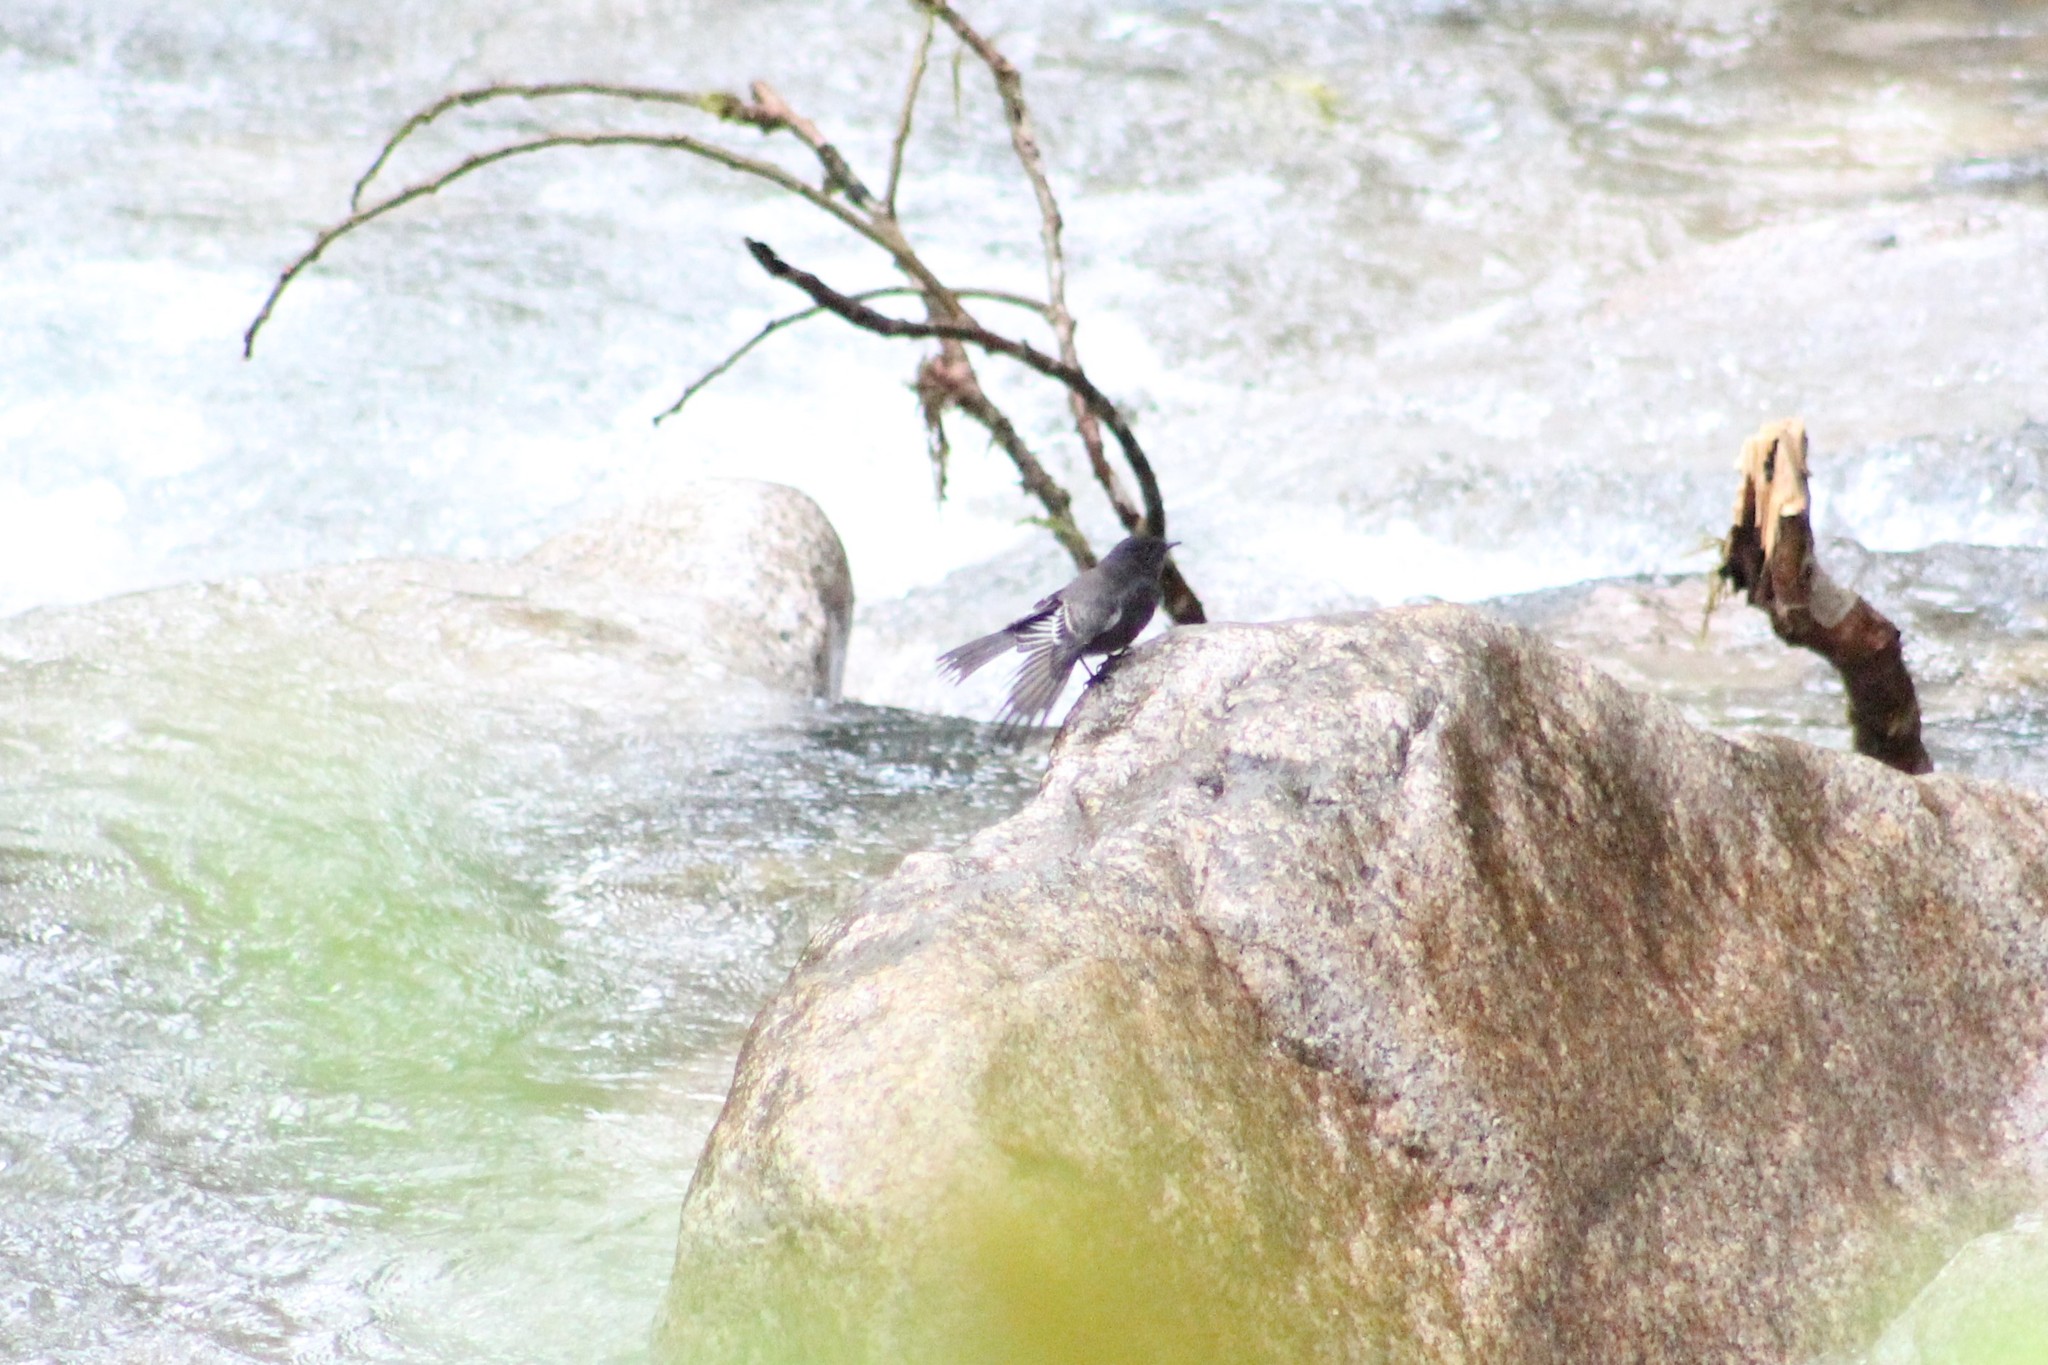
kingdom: Animalia
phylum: Chordata
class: Aves
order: Passeriformes
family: Tyrannidae
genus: Sayornis
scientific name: Sayornis nigricans
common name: Black phoebe
